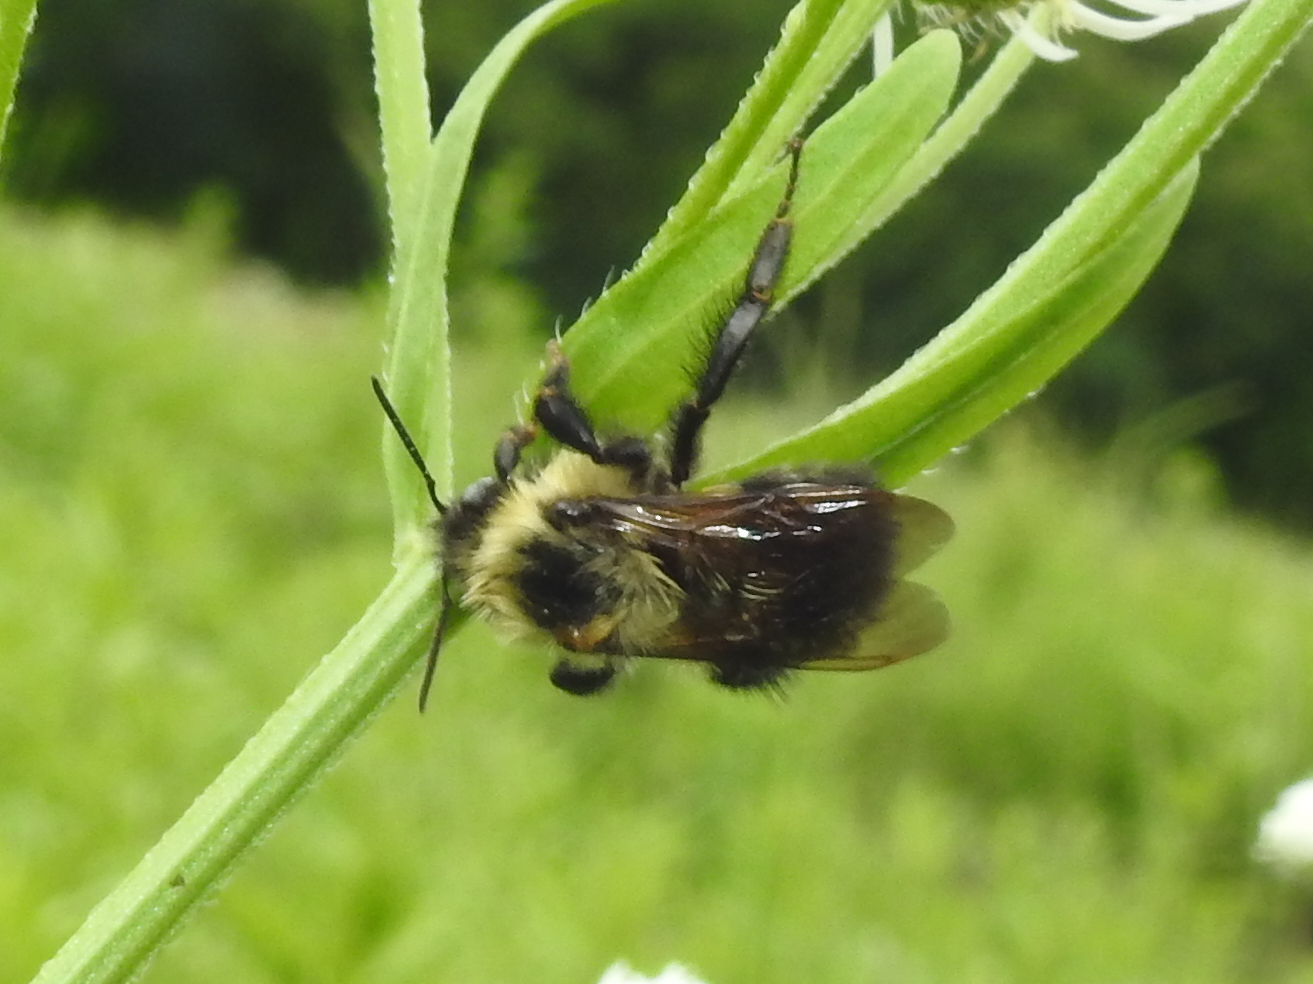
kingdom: Animalia
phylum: Arthropoda
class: Insecta
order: Hymenoptera
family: Apidae
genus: Bombus
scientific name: Bombus bimaculatus
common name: Two-spotted bumble bee
